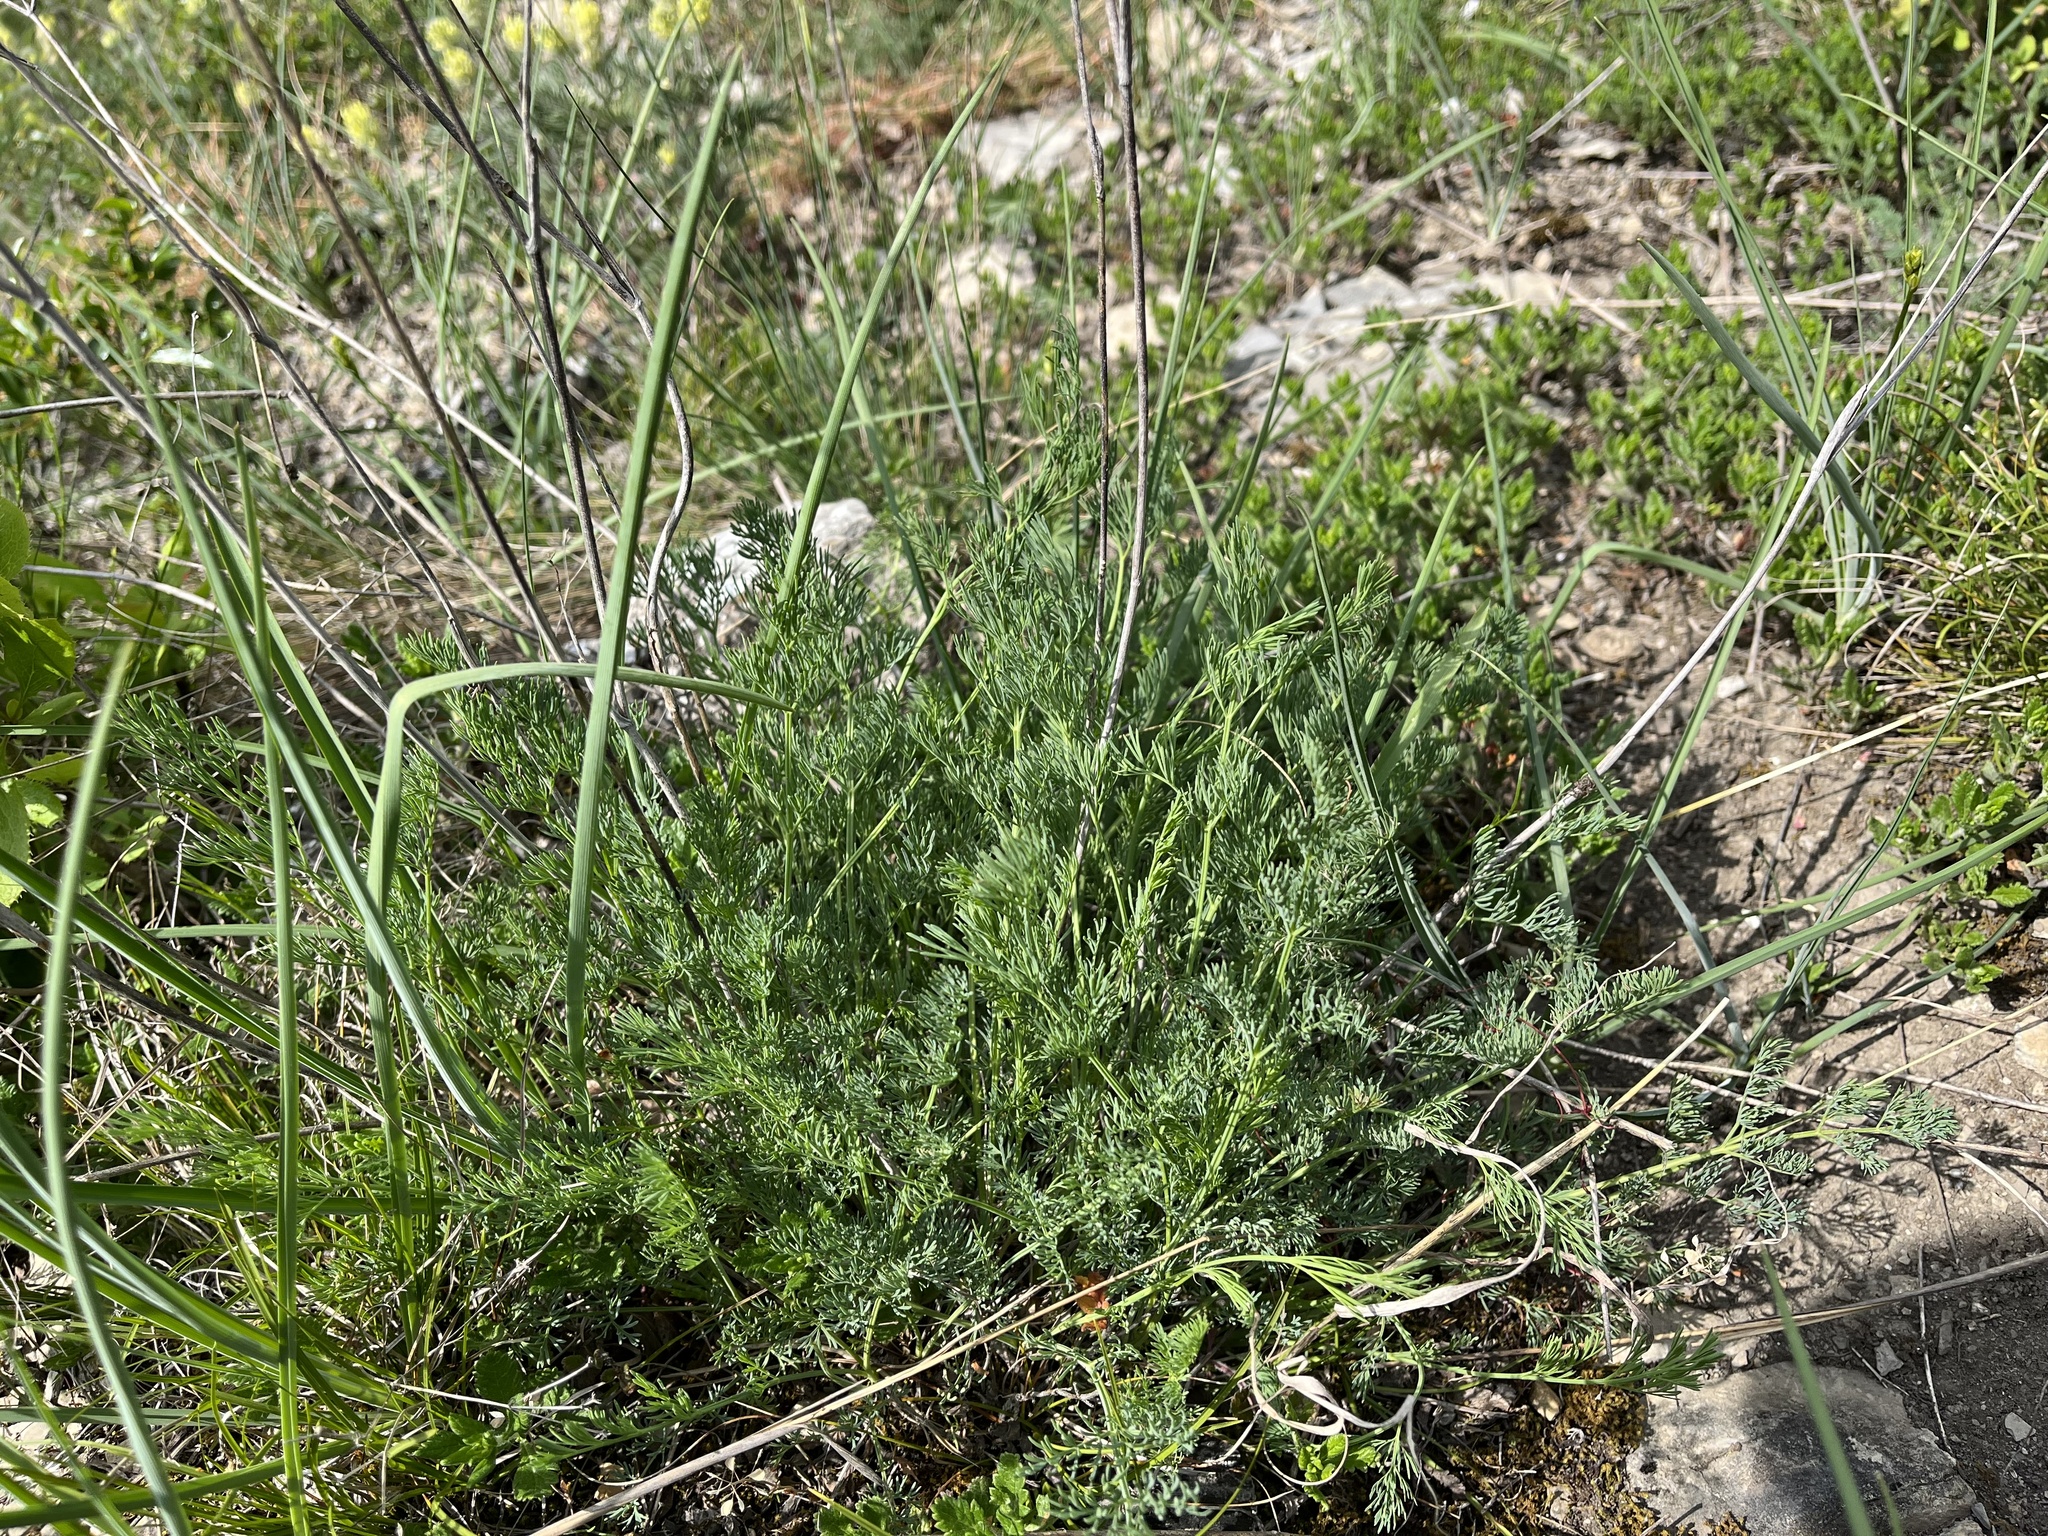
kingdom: Plantae
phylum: Tracheophyta
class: Magnoliopsida
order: Apiales
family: Apiaceae
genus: Hippomarathrum
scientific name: Hippomarathrum
